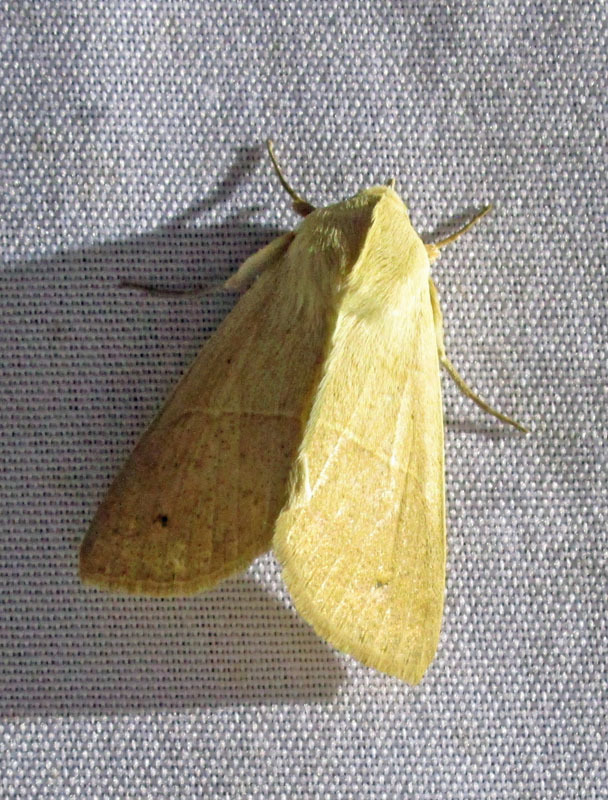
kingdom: Animalia
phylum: Arthropoda
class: Insecta
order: Lepidoptera
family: Noctuidae
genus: Chloridea
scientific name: Chloridea virescens
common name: Tobacco budworm
